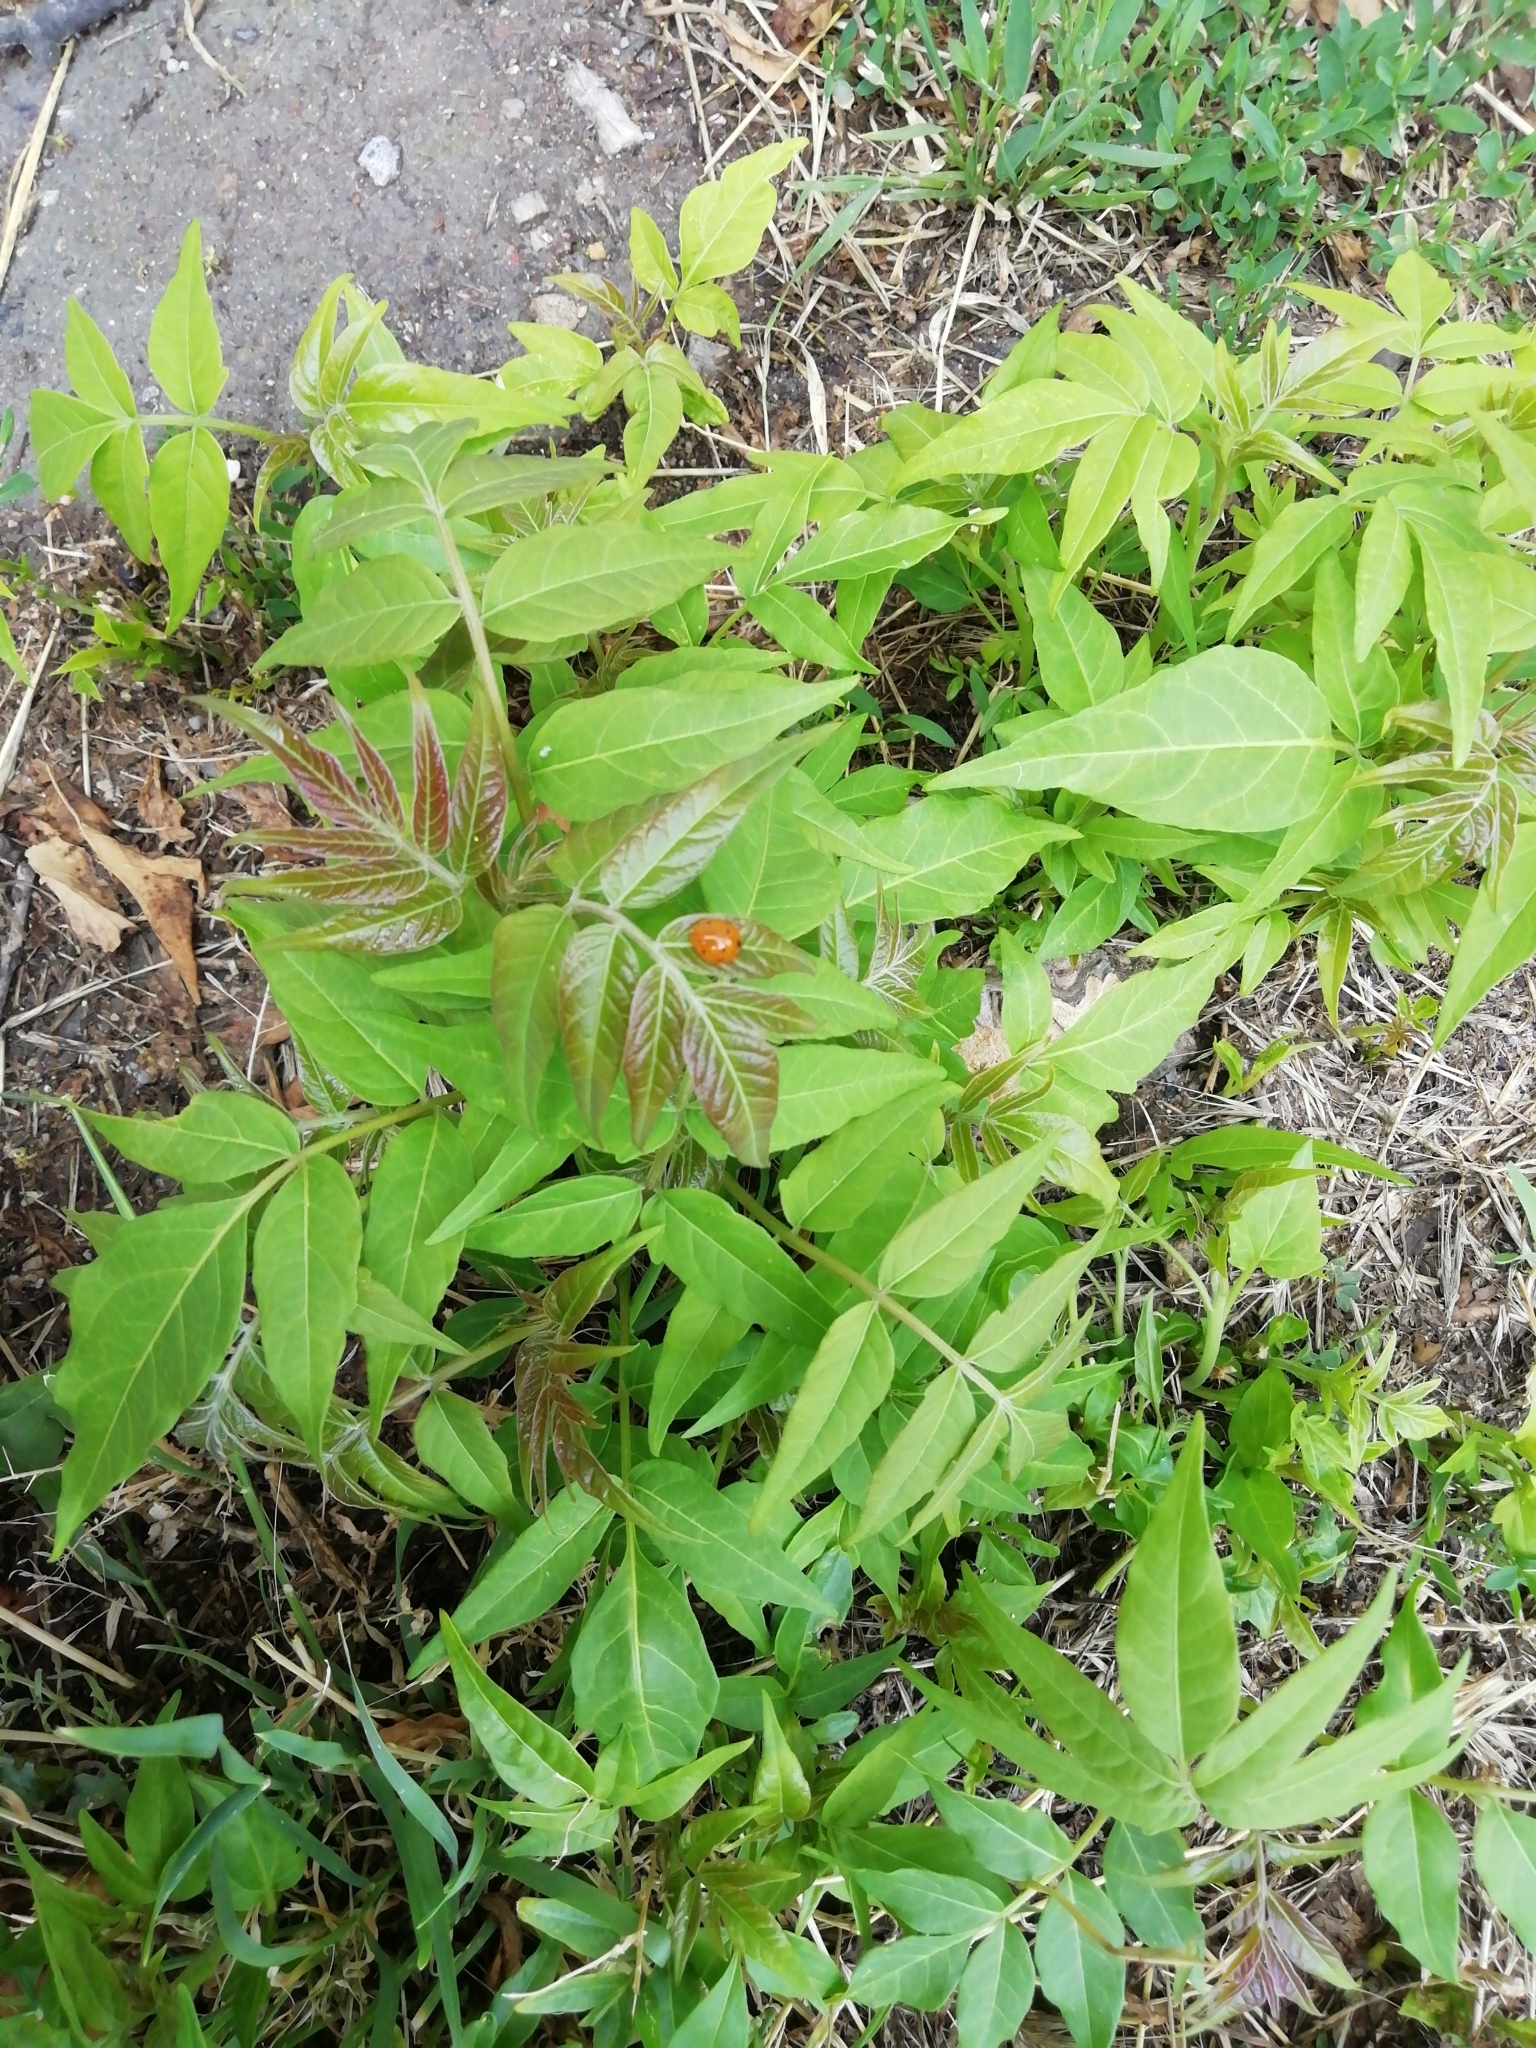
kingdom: Plantae
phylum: Tracheophyta
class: Magnoliopsida
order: Sapindales
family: Simaroubaceae
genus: Ailanthus
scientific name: Ailanthus altissima
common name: Tree-of-heaven
